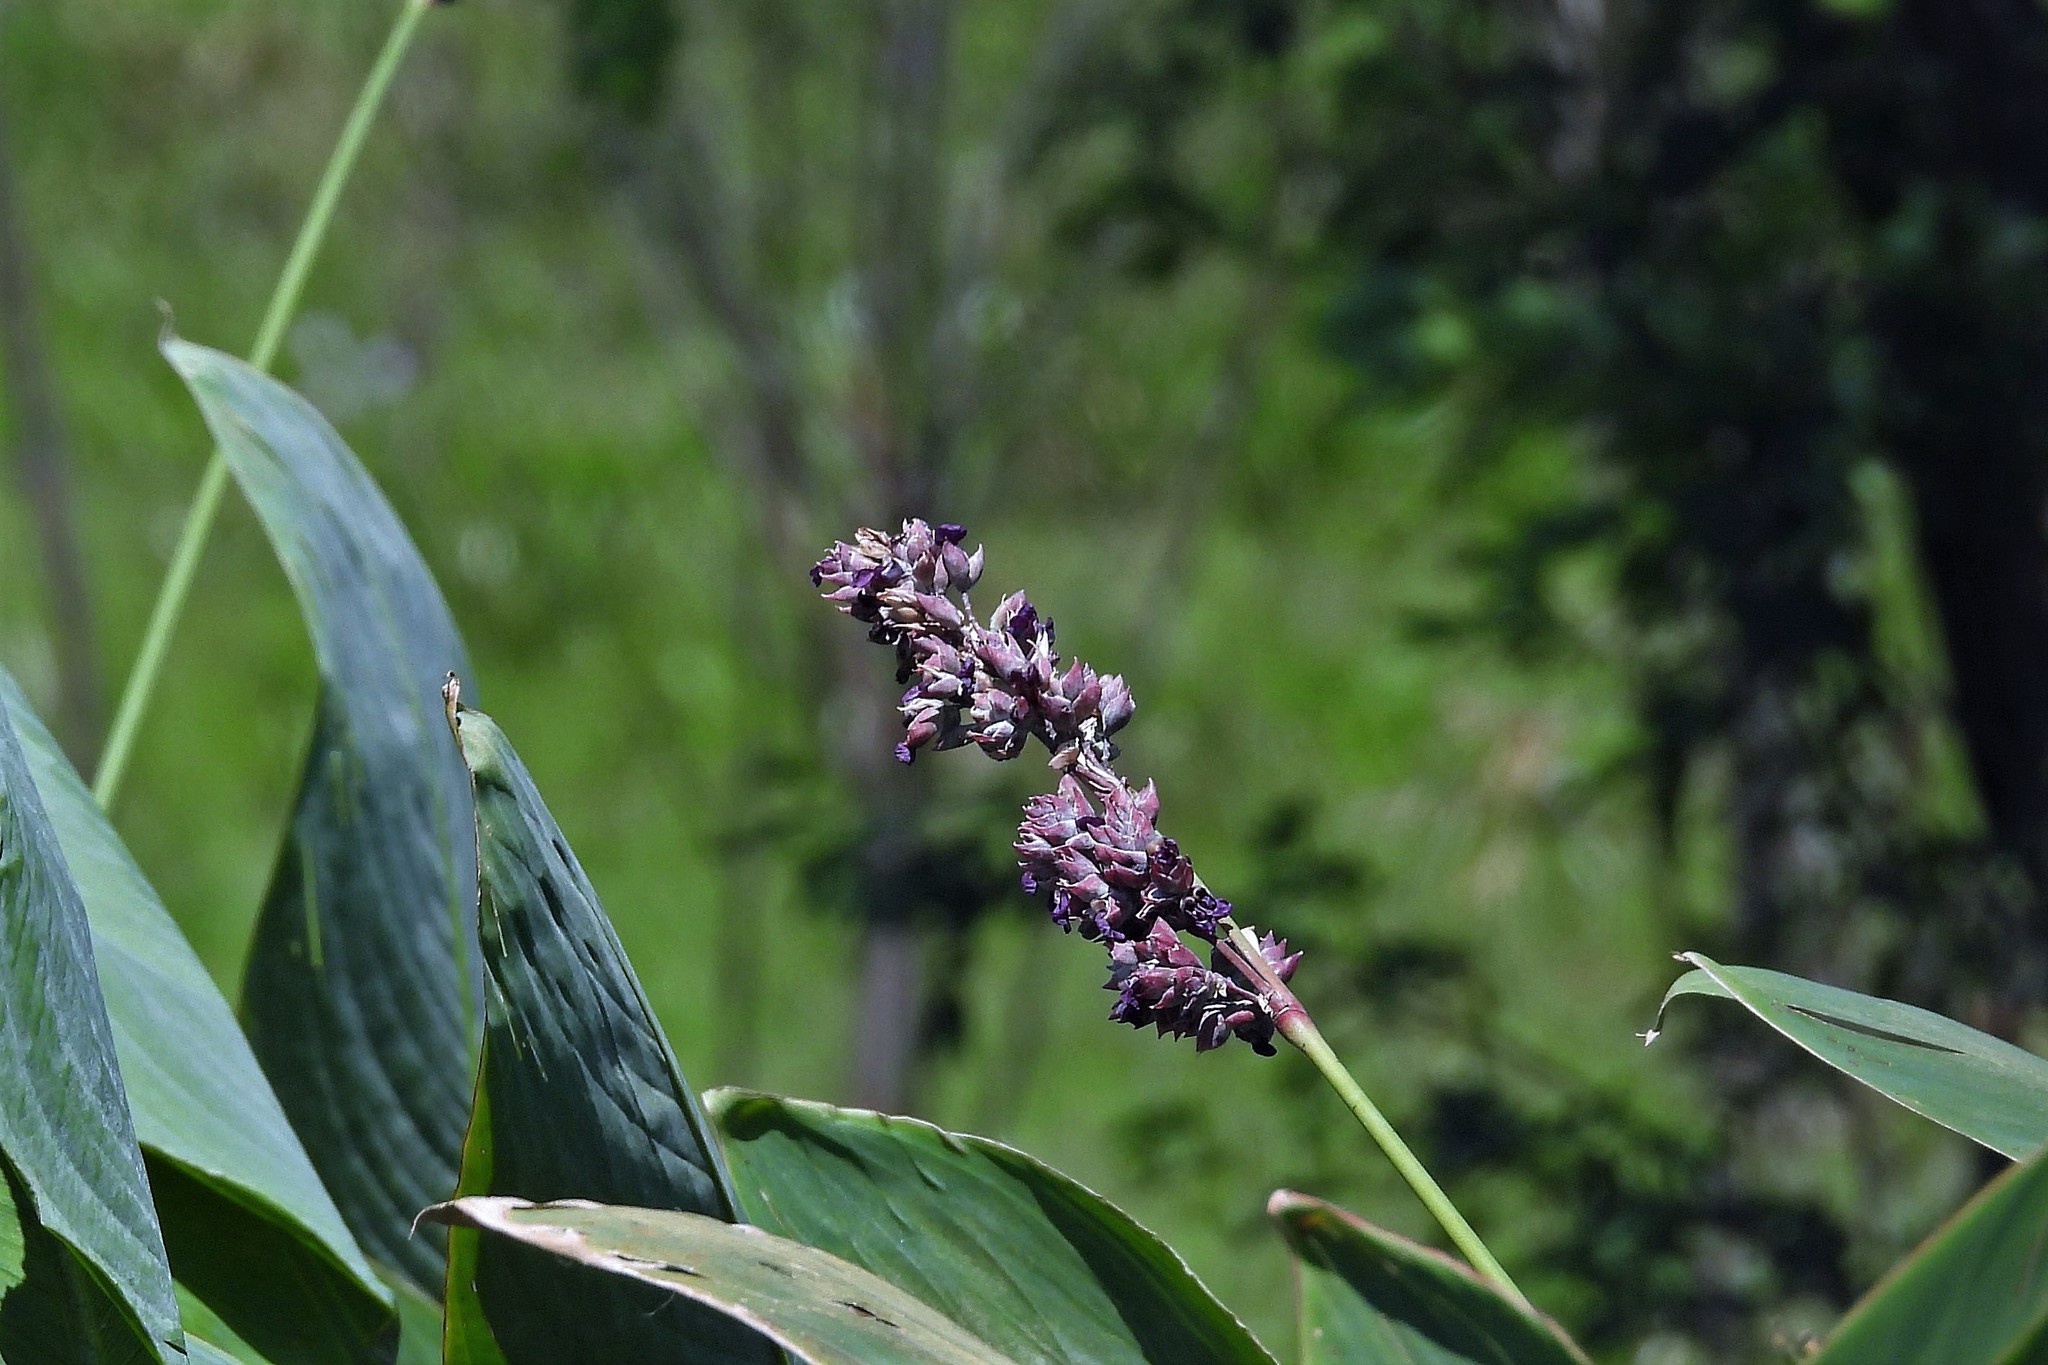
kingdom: Plantae
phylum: Tracheophyta
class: Liliopsida
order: Zingiberales
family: Marantaceae
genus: Thalia
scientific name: Thalia multiflora
